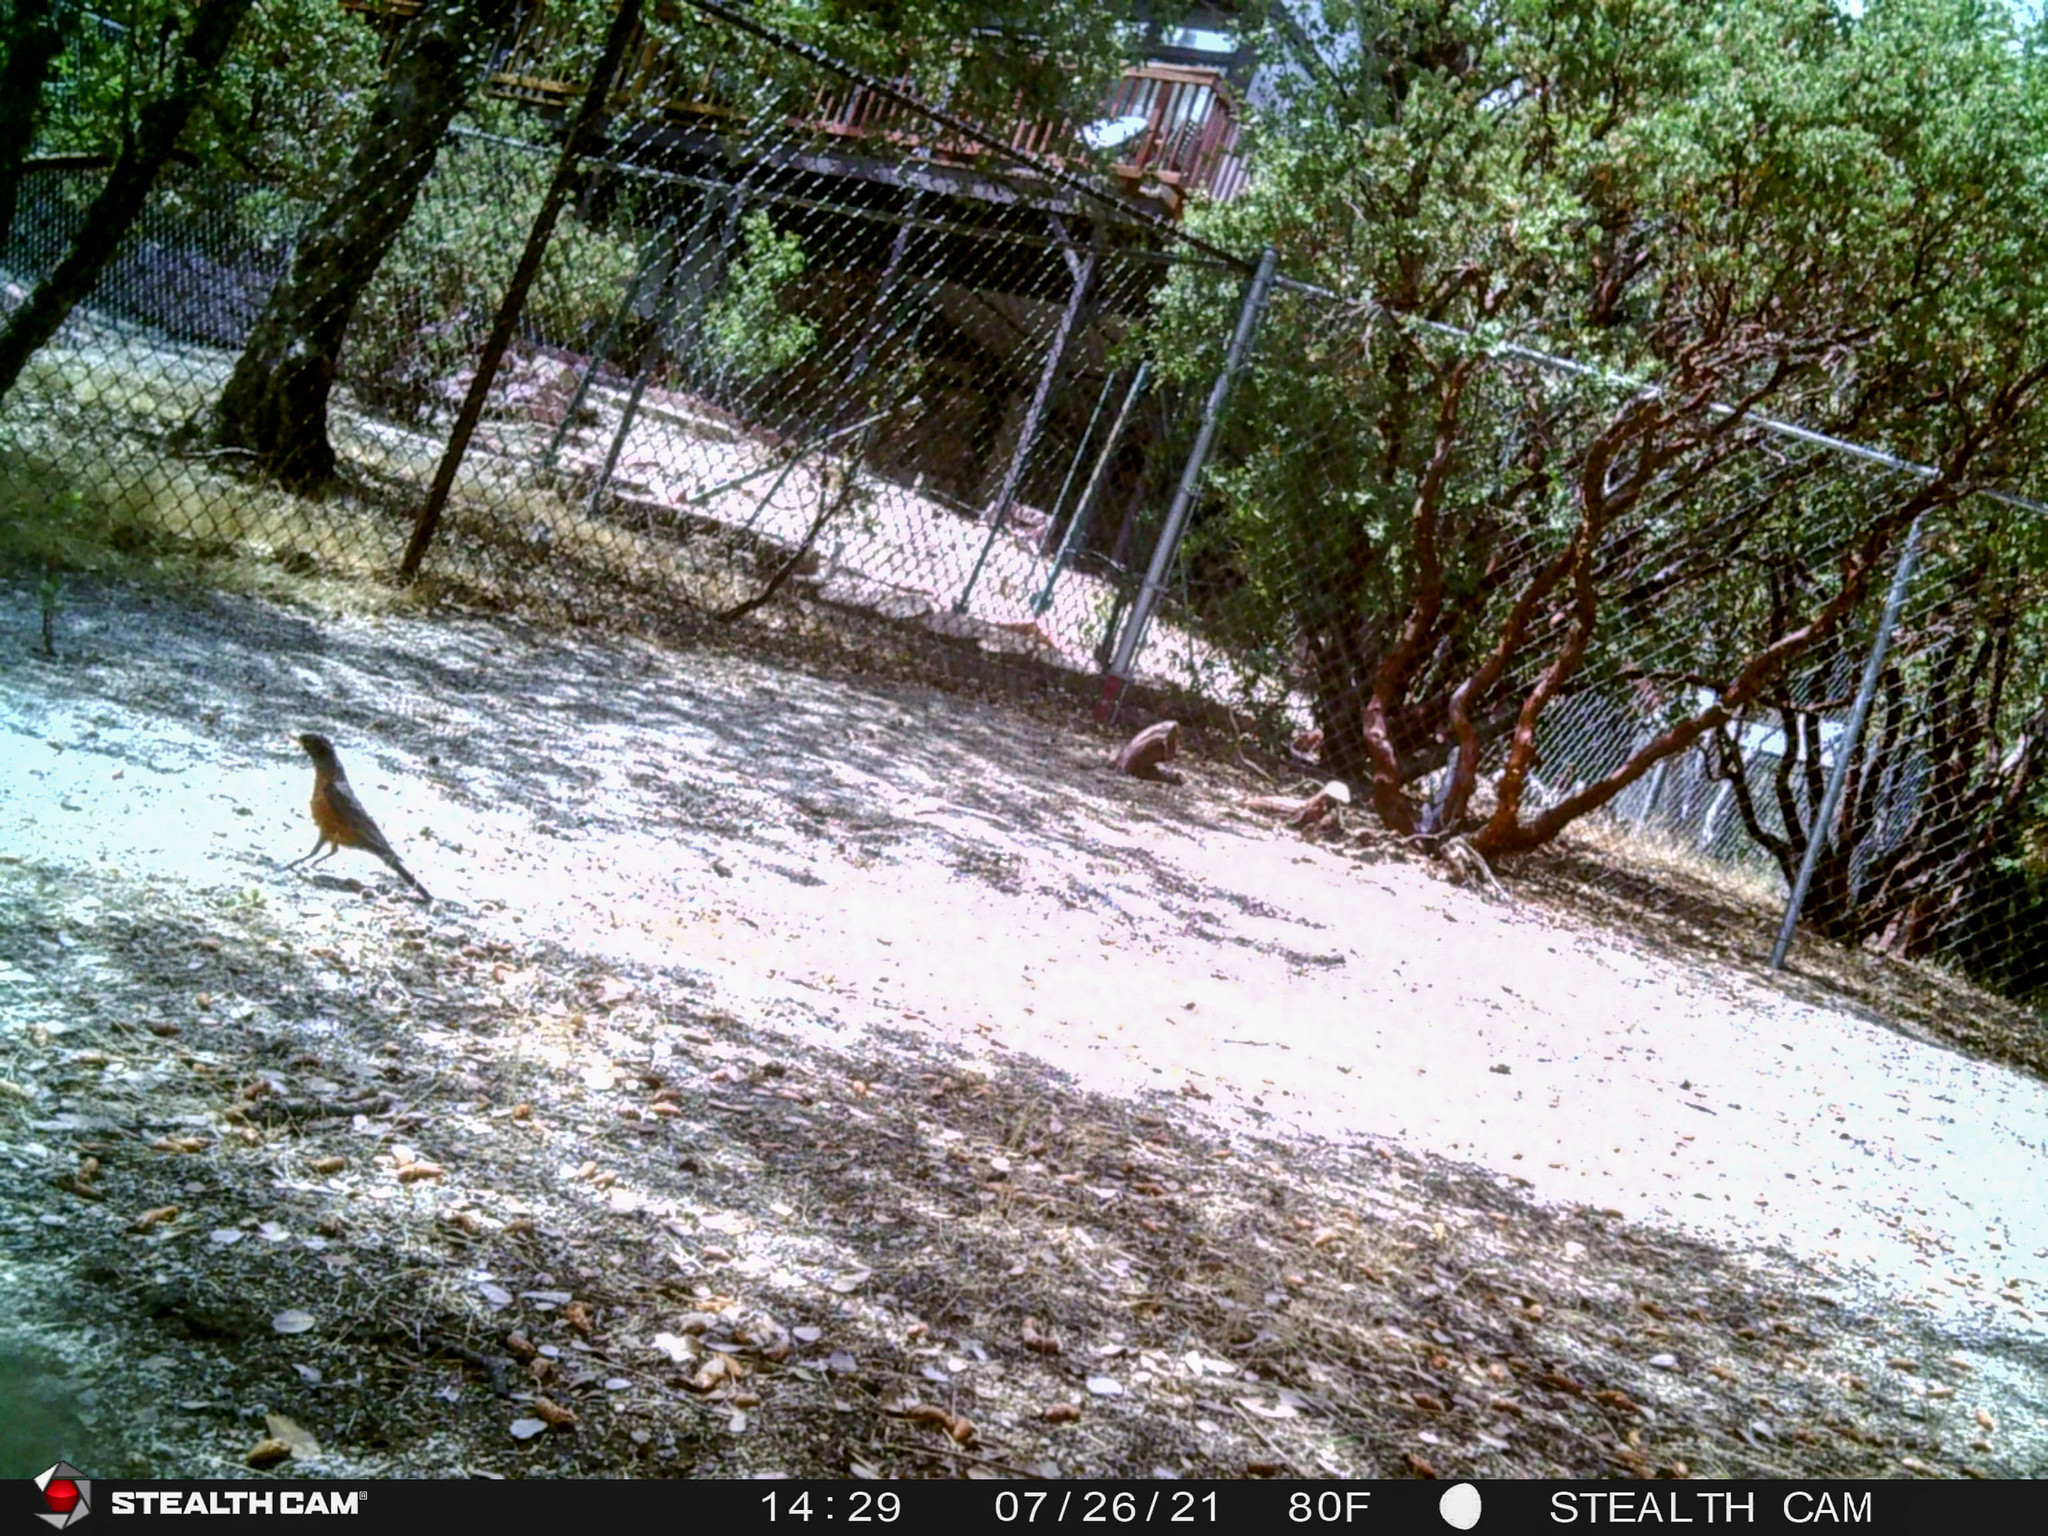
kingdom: Animalia
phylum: Chordata
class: Aves
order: Passeriformes
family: Turdidae
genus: Turdus
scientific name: Turdus migratorius
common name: American robin
